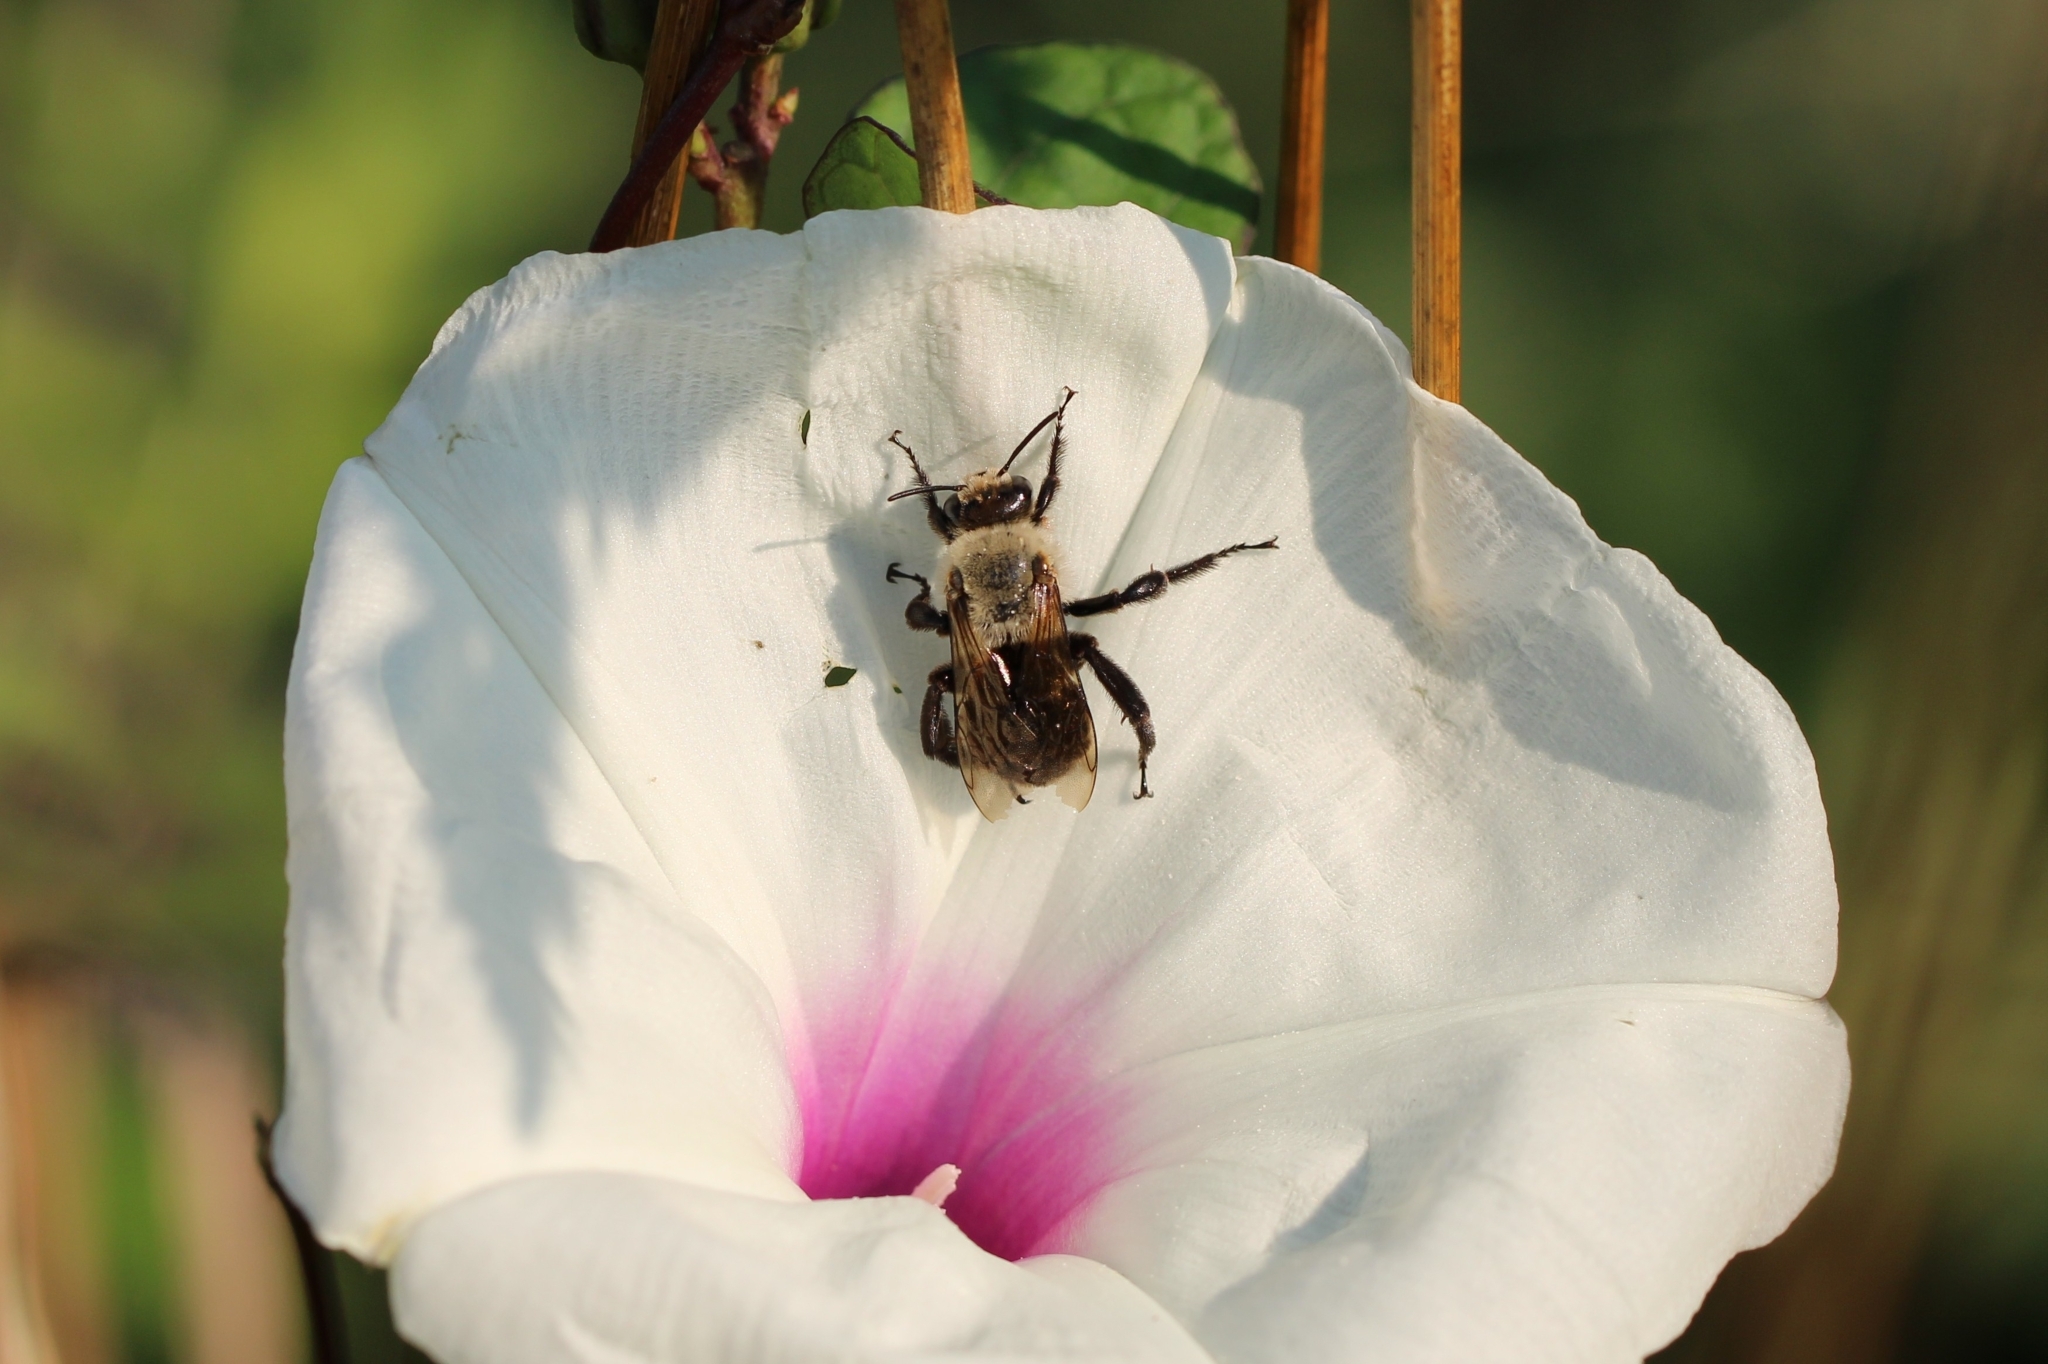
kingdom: Animalia
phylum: Arthropoda
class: Insecta
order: Hymenoptera
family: Apidae
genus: Ptilothrix
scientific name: Ptilothrix bombiformis
